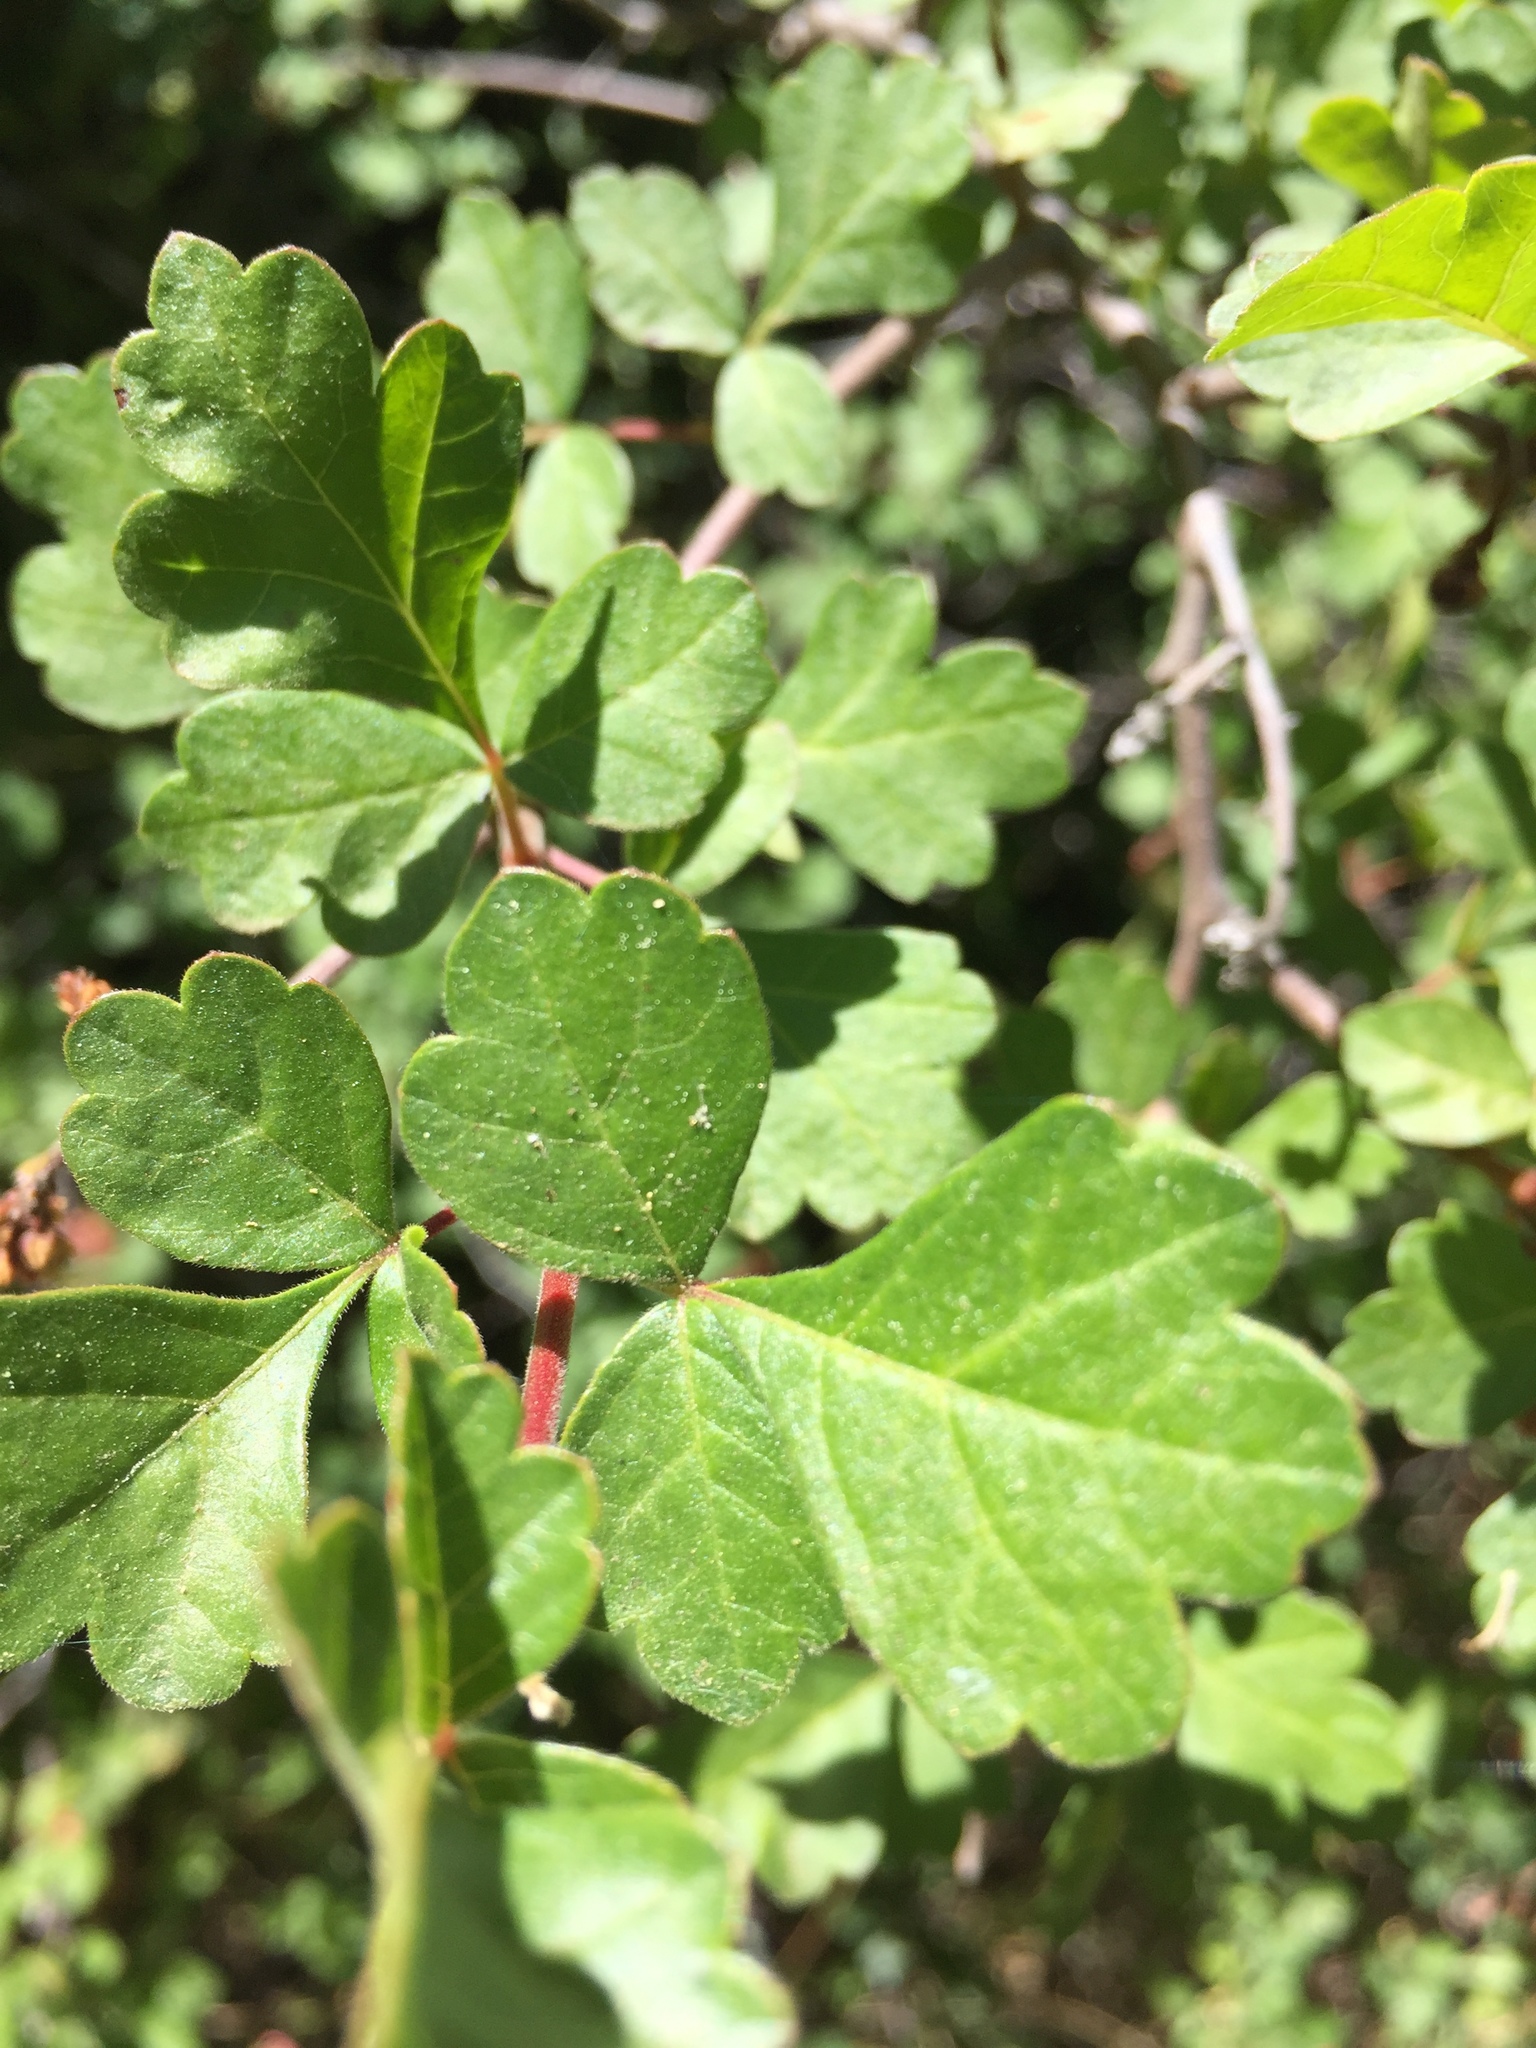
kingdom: Plantae
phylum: Tracheophyta
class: Magnoliopsida
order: Sapindales
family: Anacardiaceae
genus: Rhus
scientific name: Rhus aromatica
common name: Aromatic sumac
